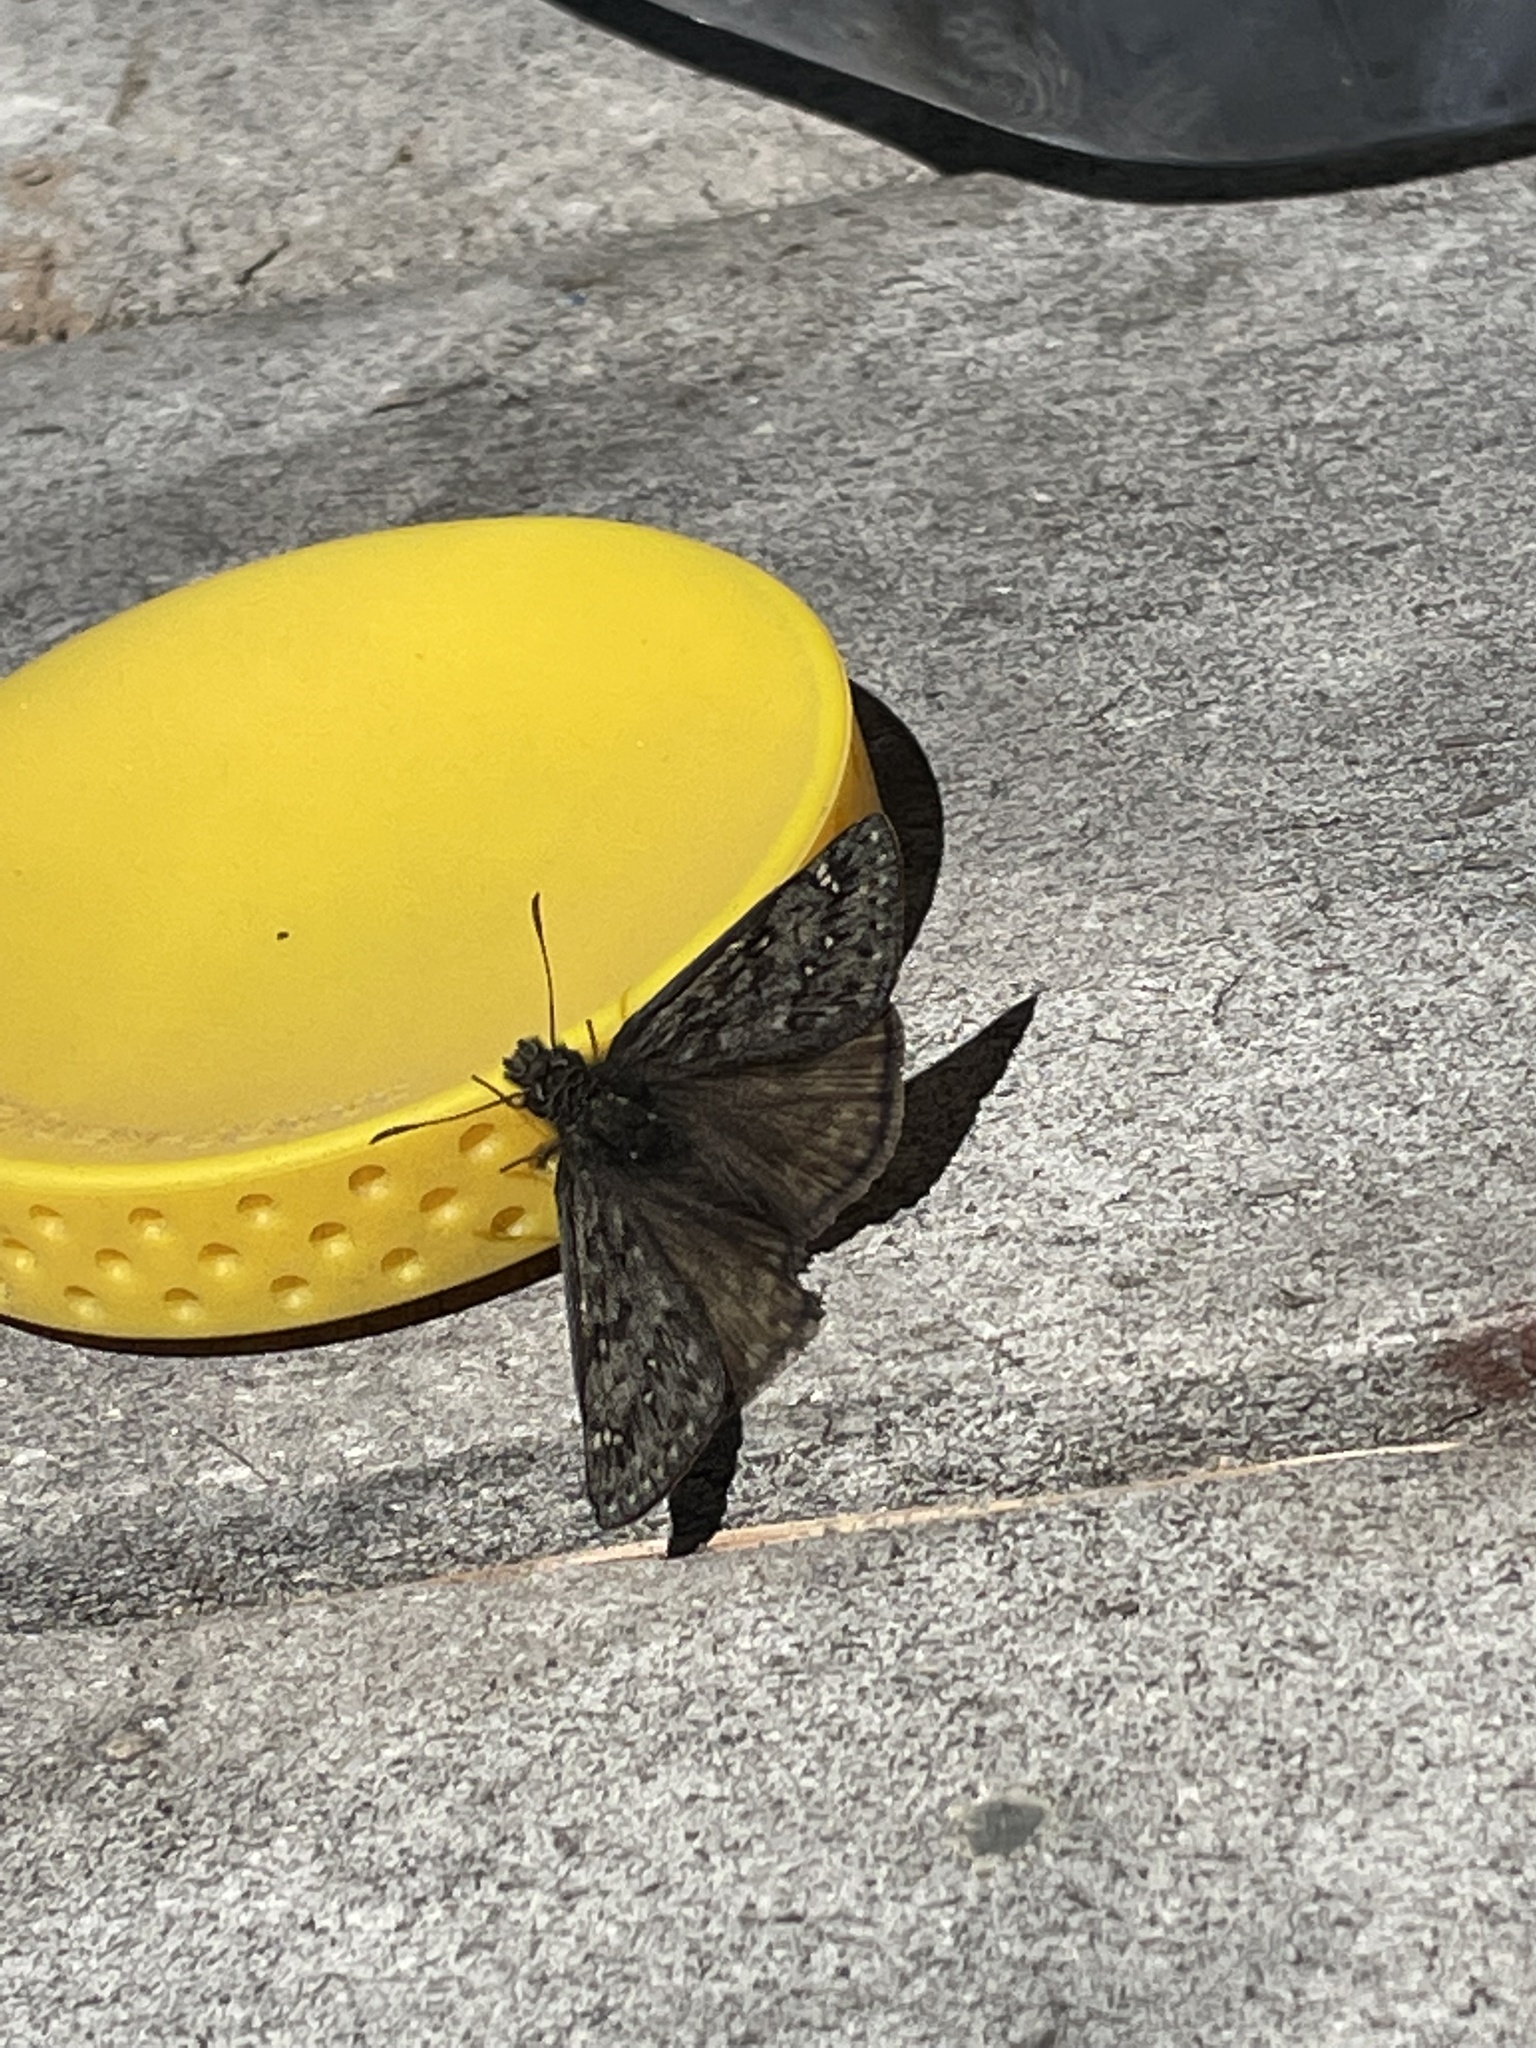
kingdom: Animalia
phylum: Arthropoda
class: Insecta
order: Lepidoptera
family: Hesperiidae
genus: Erynnis
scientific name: Erynnis telemachus
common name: Rocky mountain duskywing
